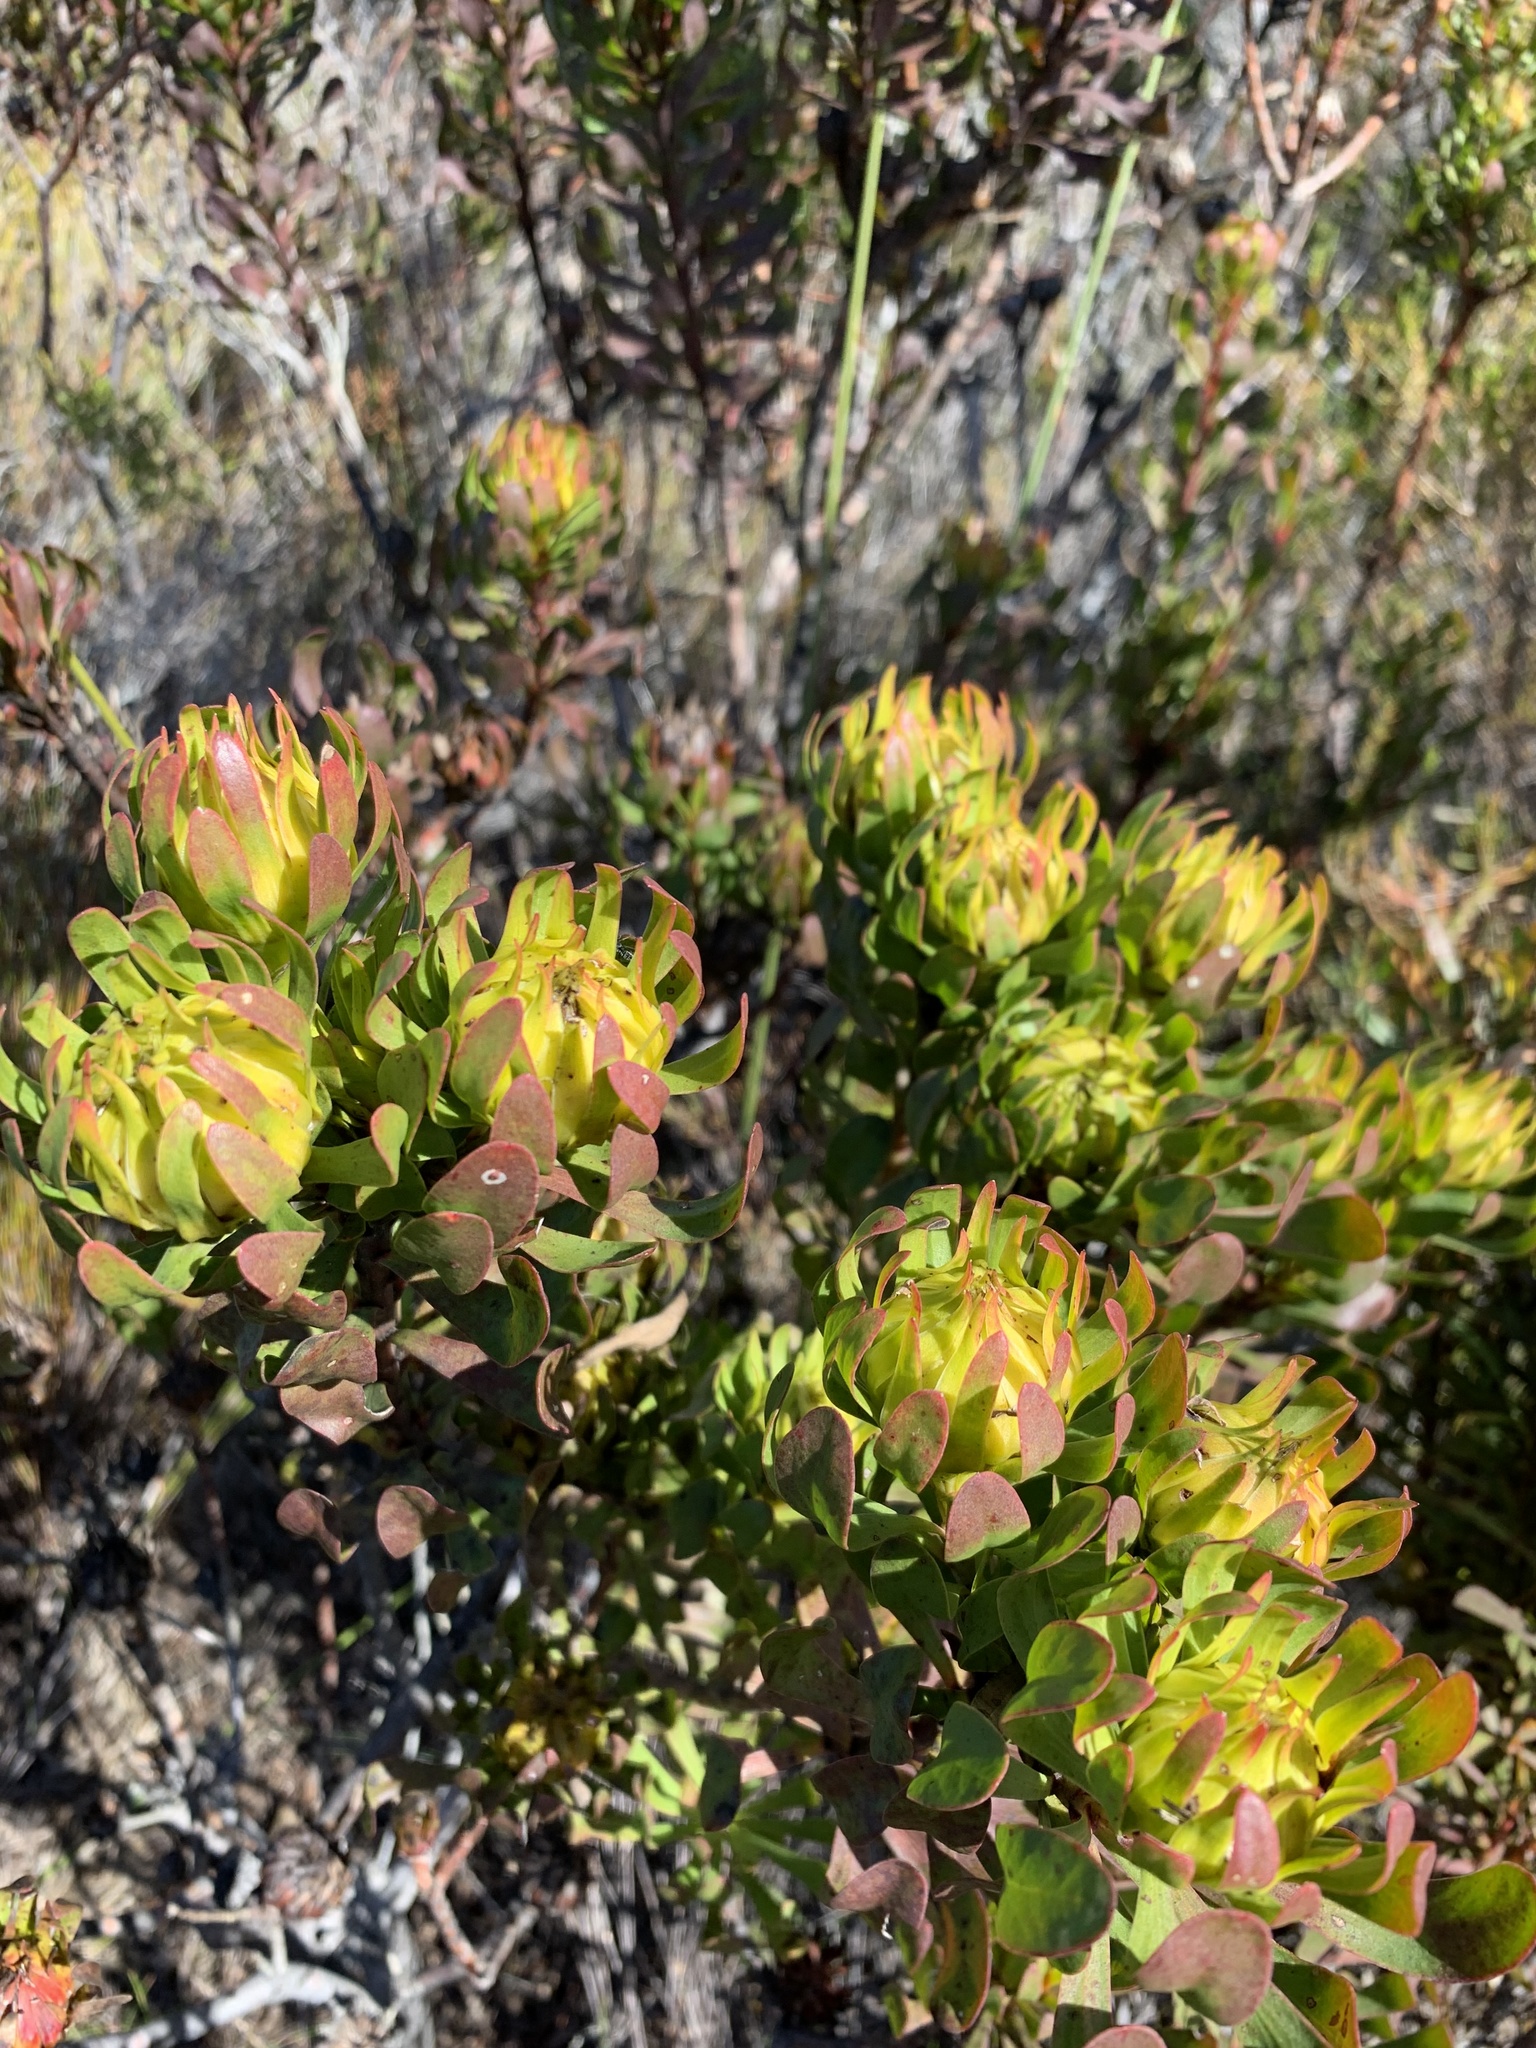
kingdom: Plantae
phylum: Tracheophyta
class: Magnoliopsida
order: Proteales
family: Proteaceae
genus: Aulax
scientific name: Aulax umbellata
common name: Broad-leaf featherbush
